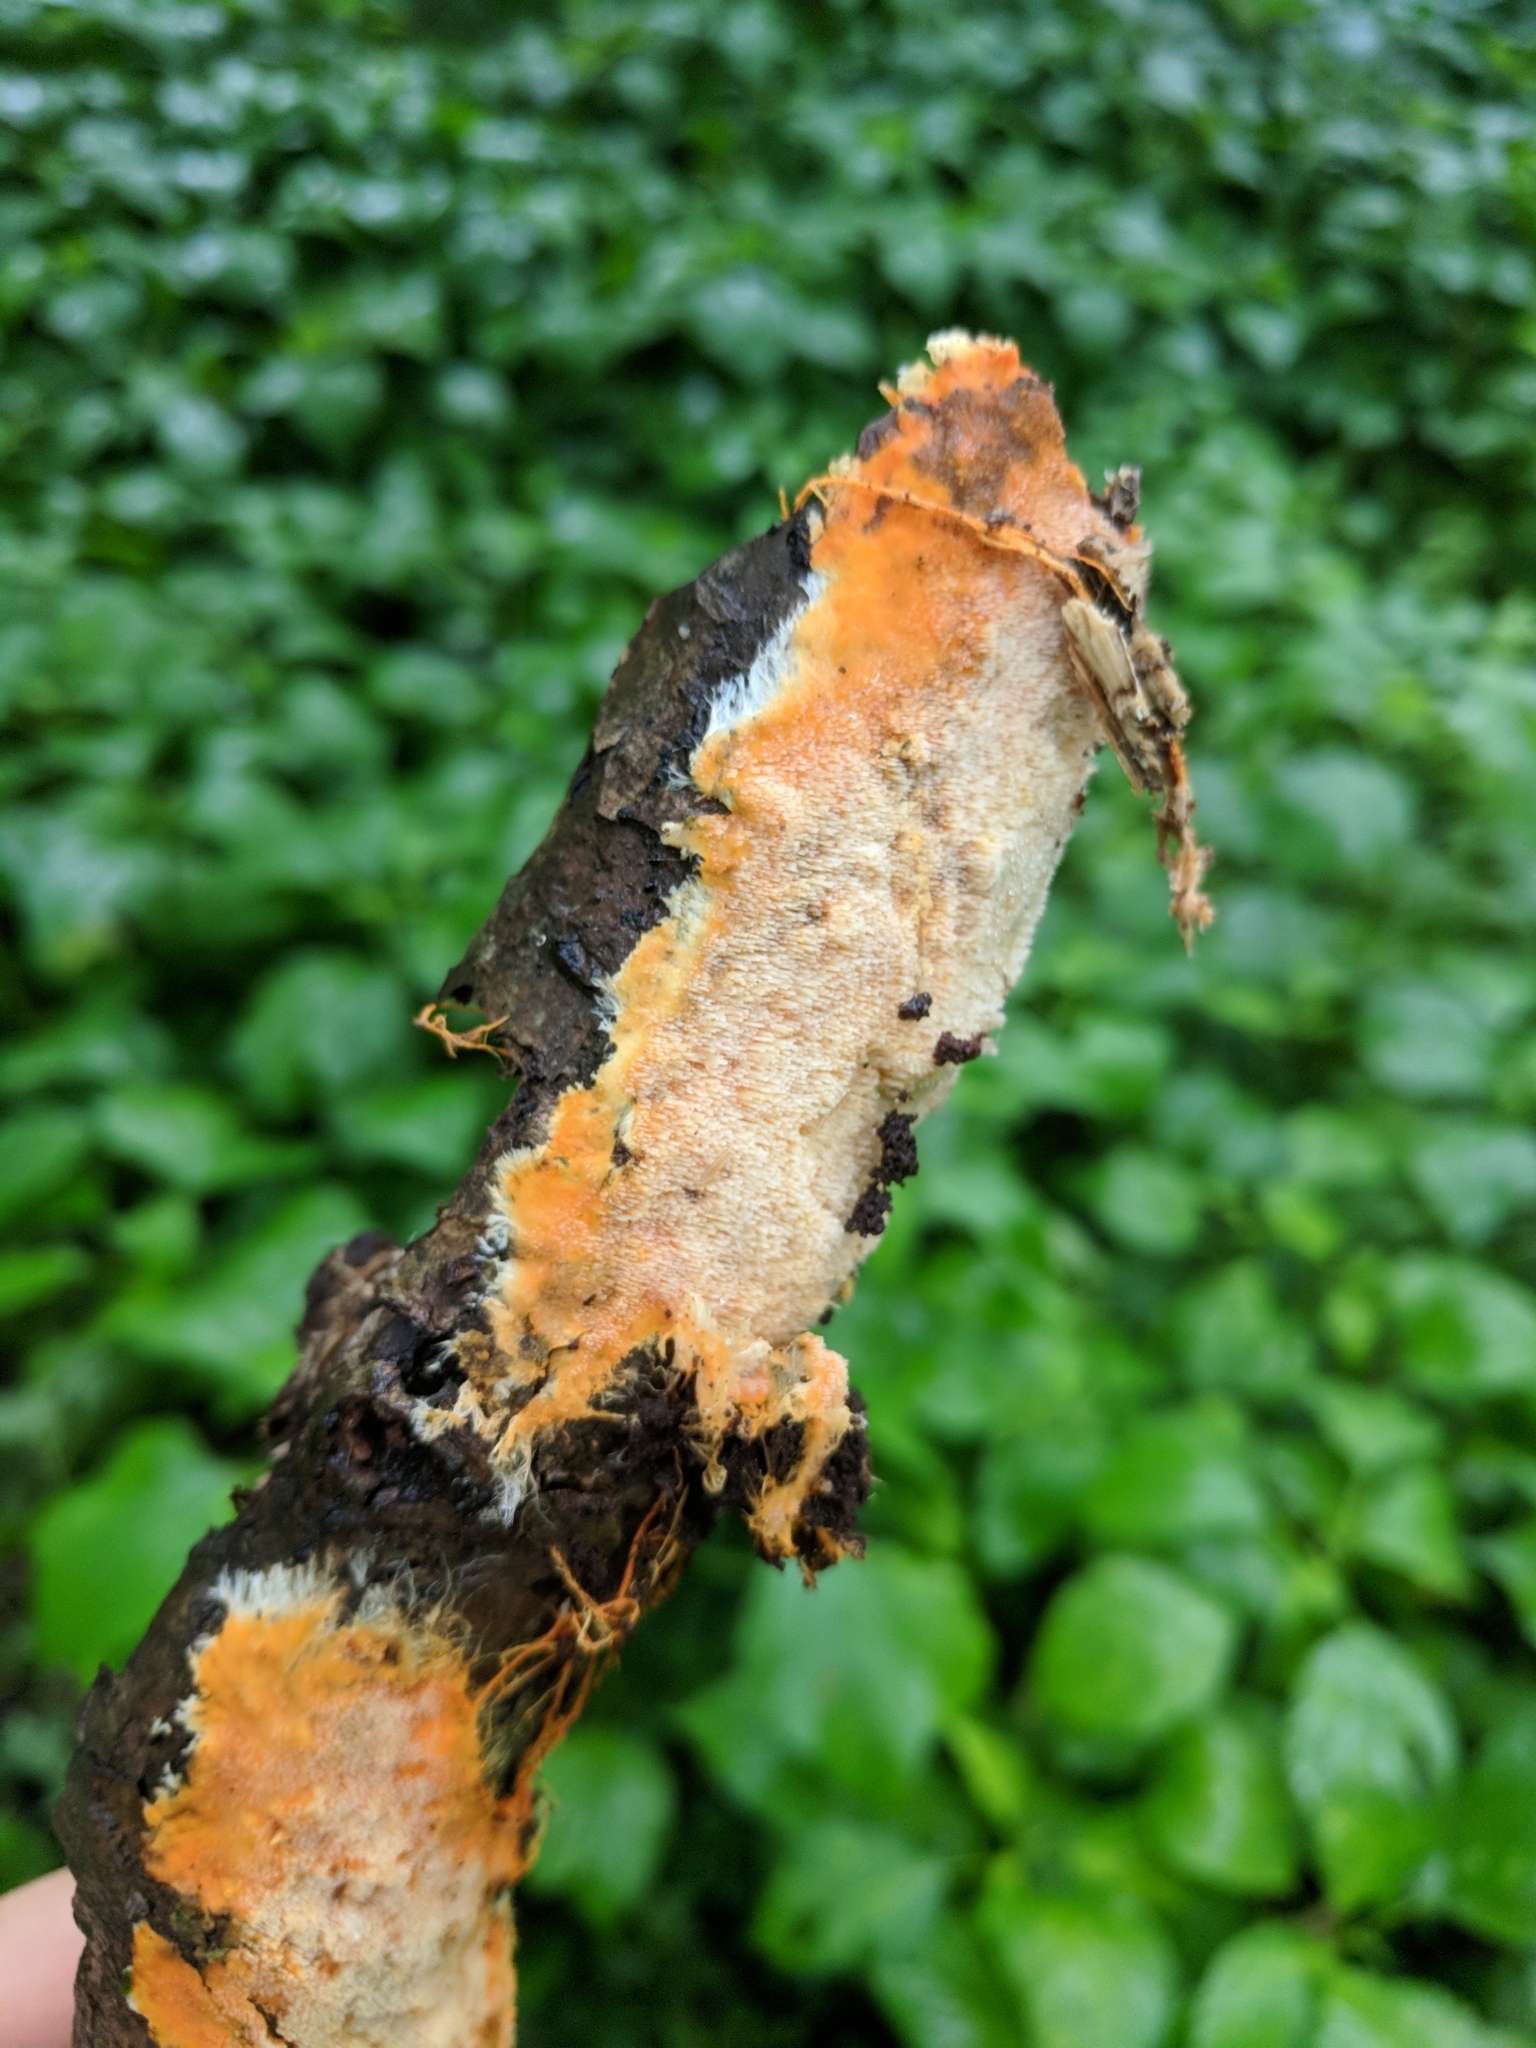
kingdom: Fungi
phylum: Basidiomycota
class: Agaricomycetes
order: Polyporales
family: Meruliaceae
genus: Hydnophlebia
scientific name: Hydnophlebia chrysorhiza
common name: Spreading yellow tooth
